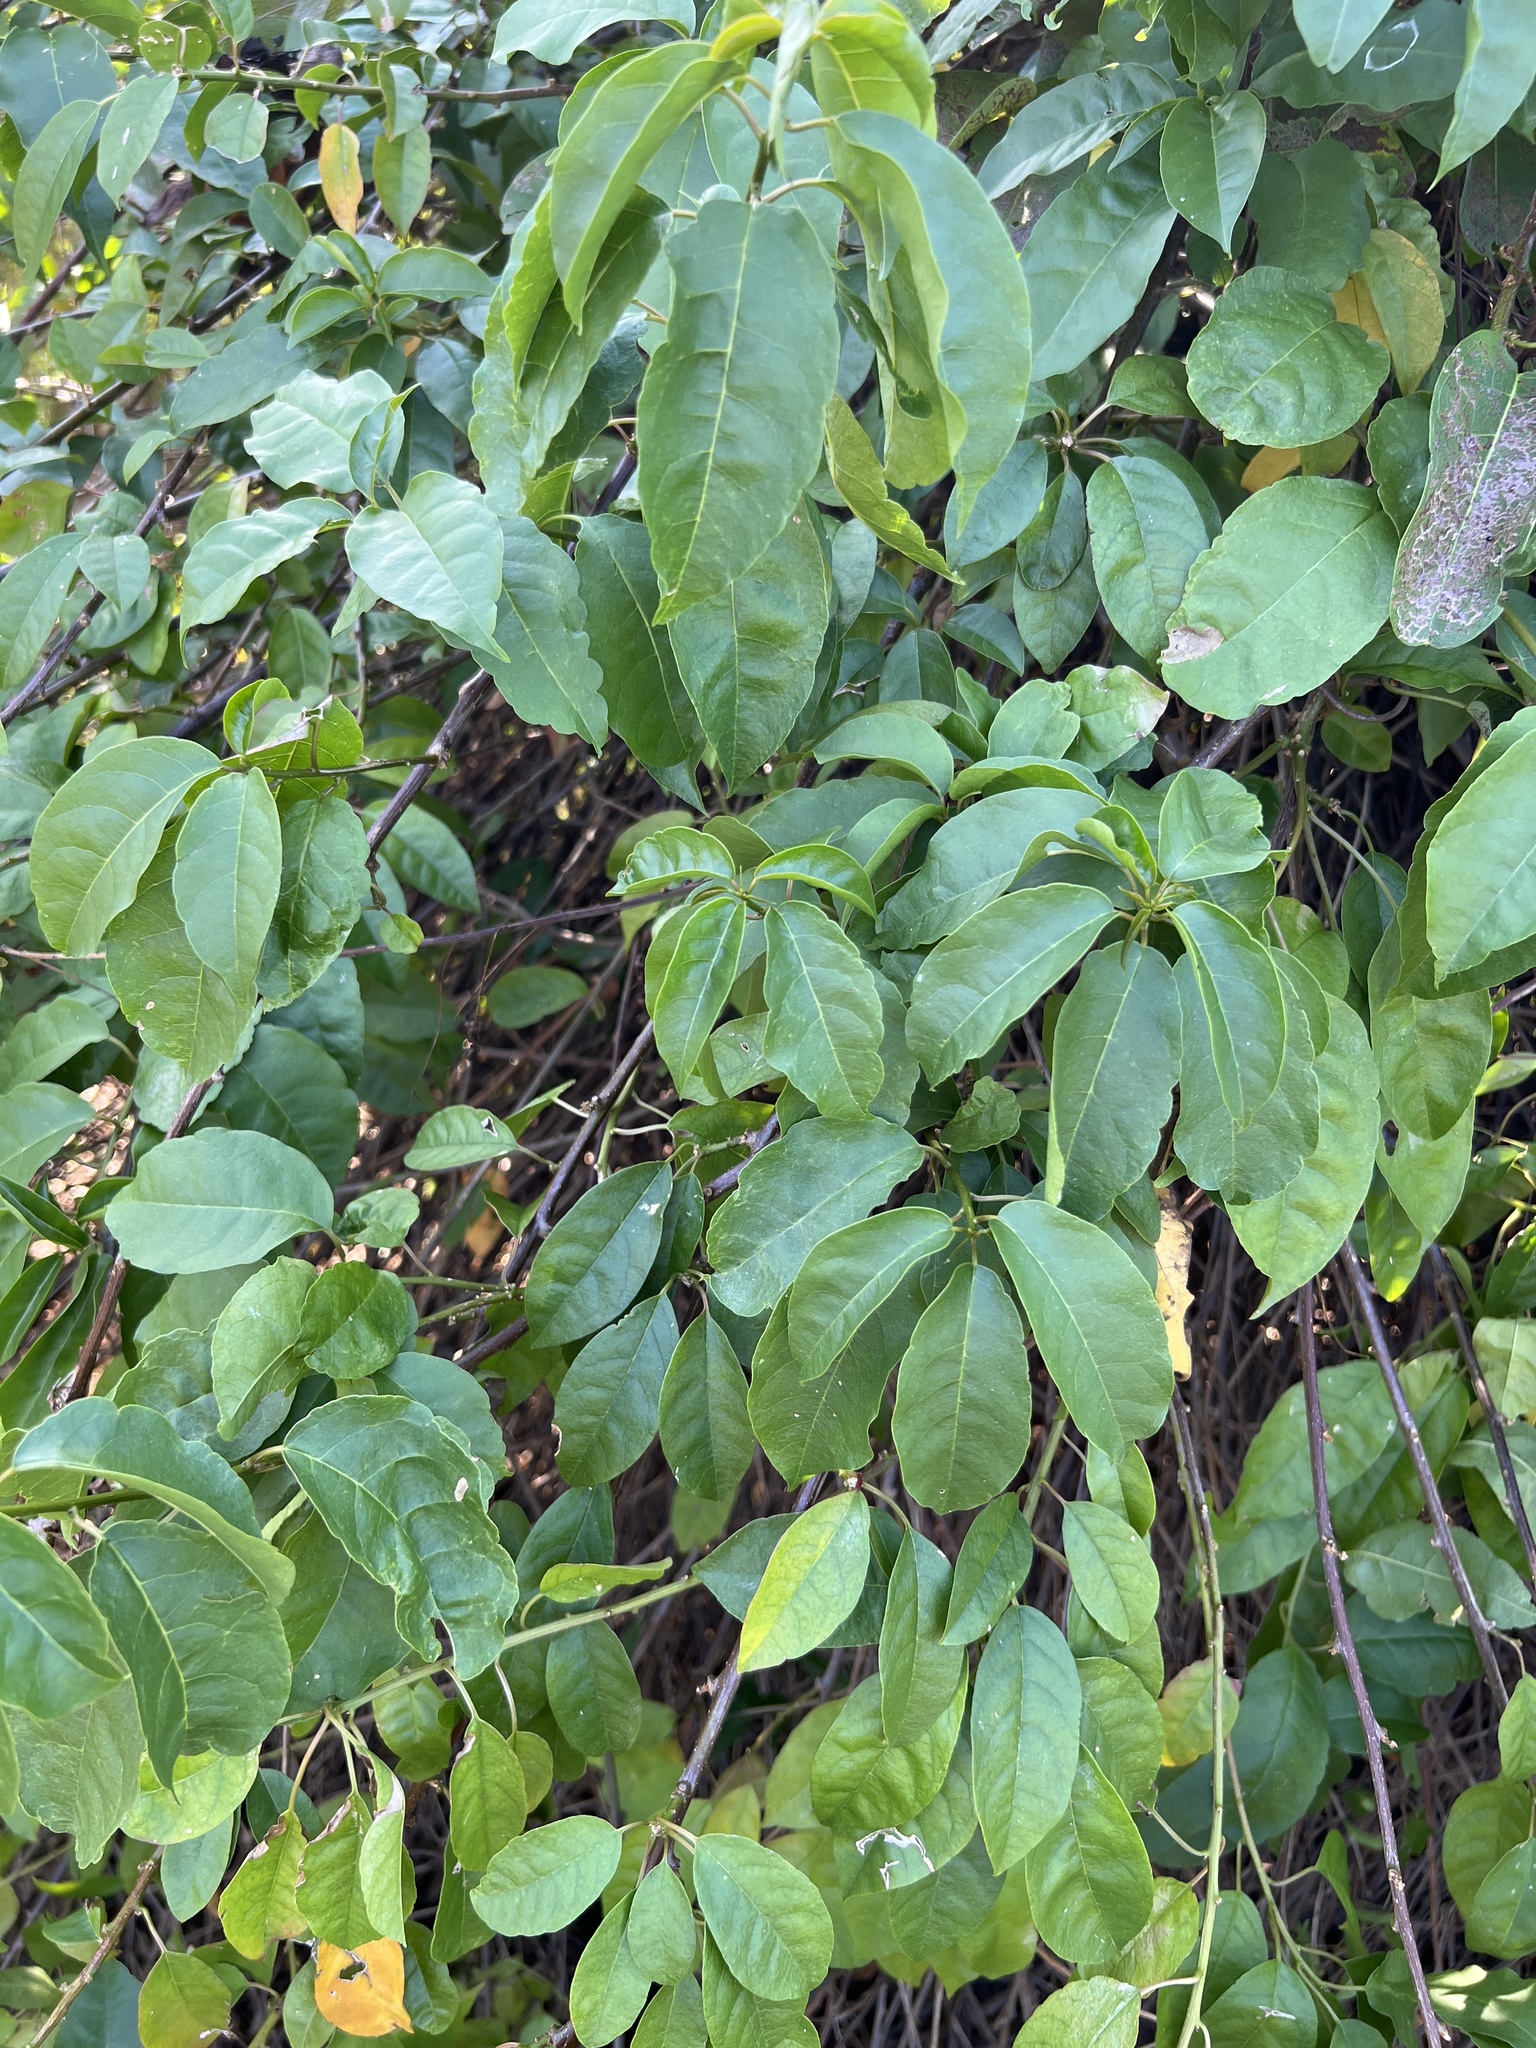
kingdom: Plantae
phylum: Tracheophyta
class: Magnoliopsida
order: Caryophyllales
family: Phytolaccaceae
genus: Trichostigma
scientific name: Trichostigma octandrum
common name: Basket wiss
